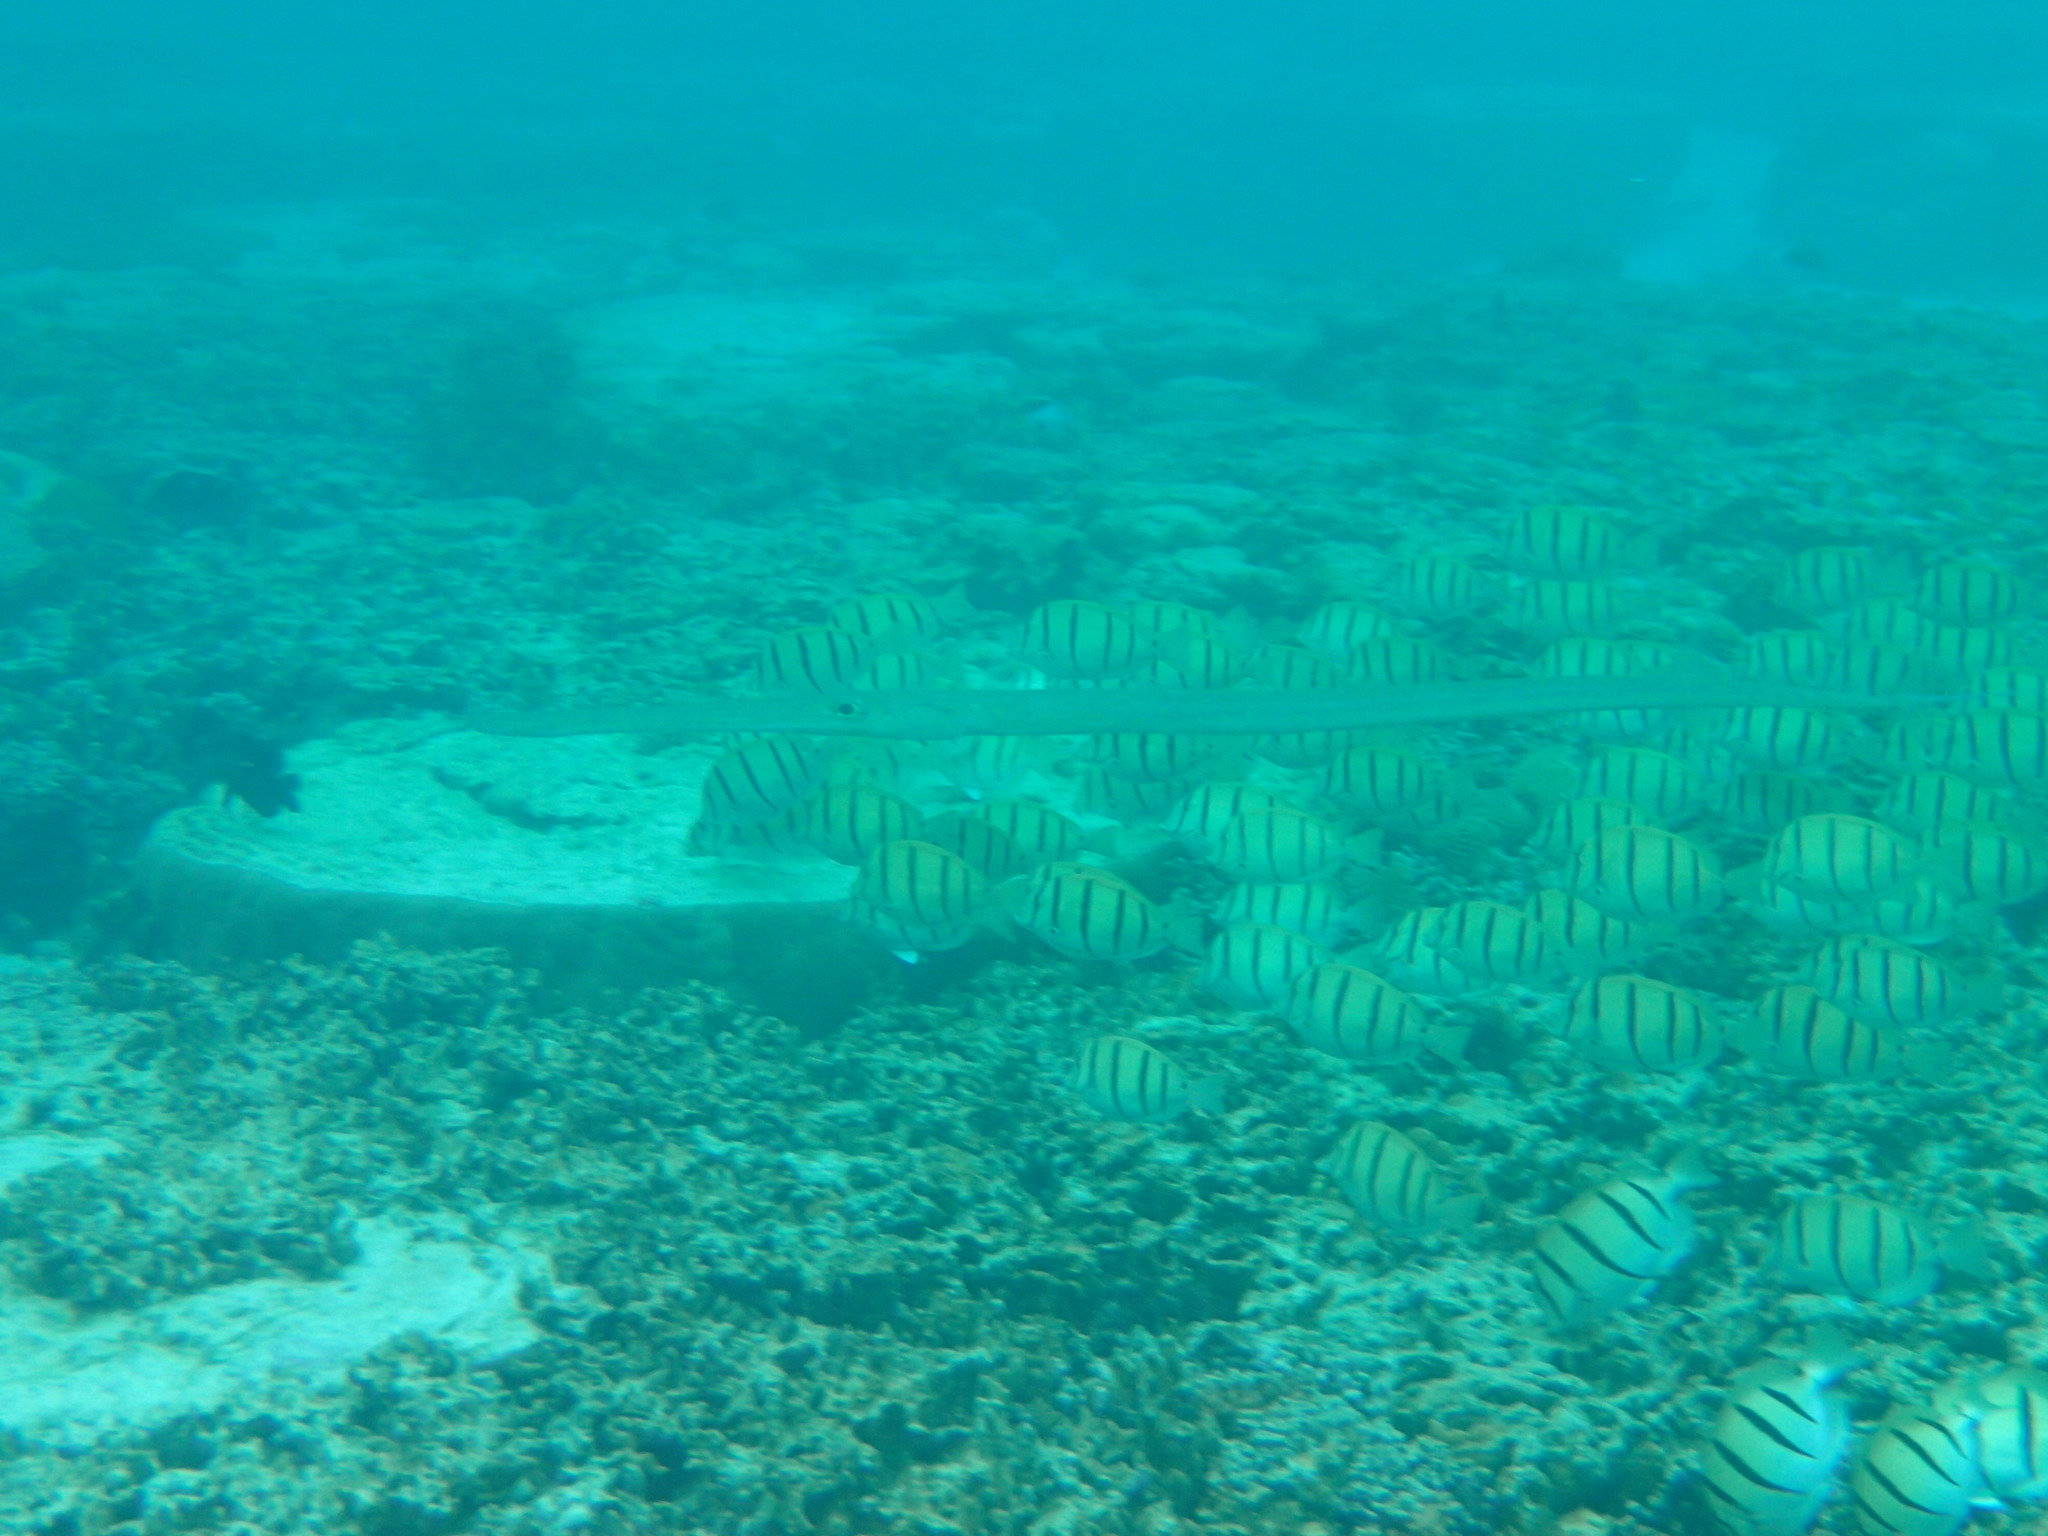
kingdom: Animalia
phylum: Chordata
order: Syngnathiformes
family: Fistulariidae
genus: Fistularia
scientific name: Fistularia commersonii
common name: Bluespotted cornetfish
